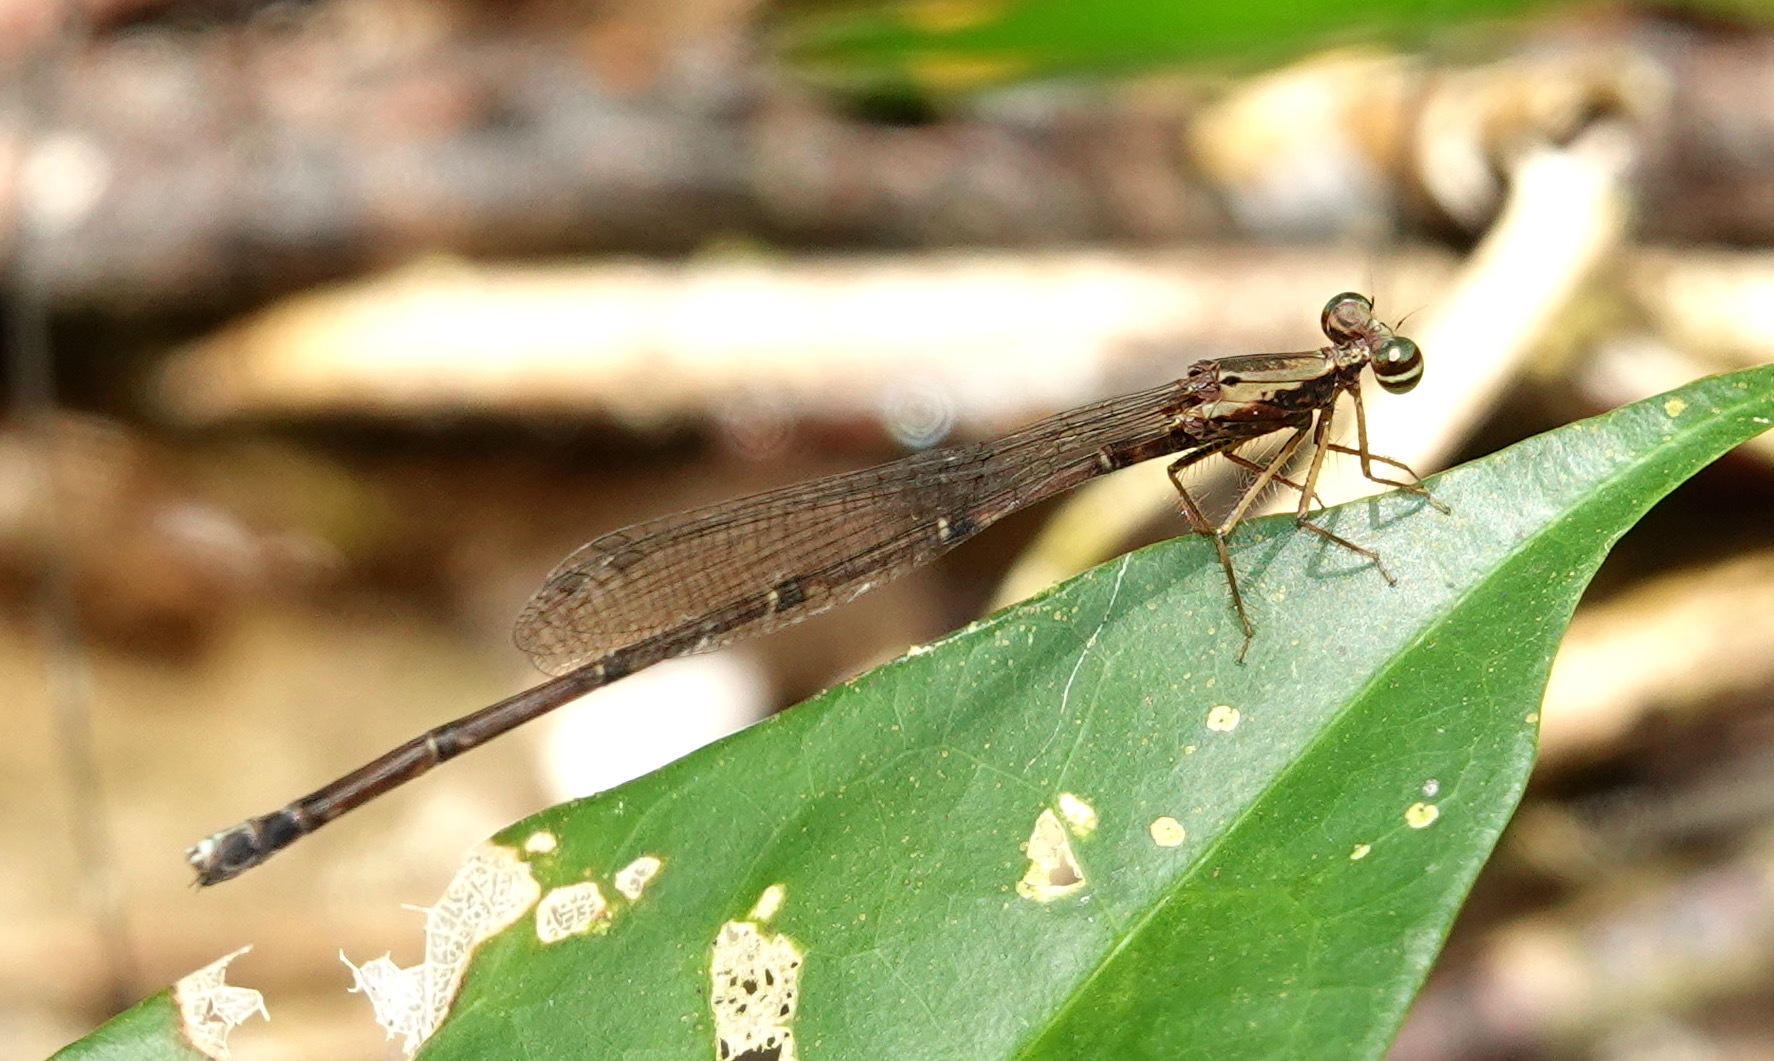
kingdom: Animalia
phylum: Arthropoda
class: Insecta
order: Odonata
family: Platycnemididae
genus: Copera
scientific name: Copera vittata
